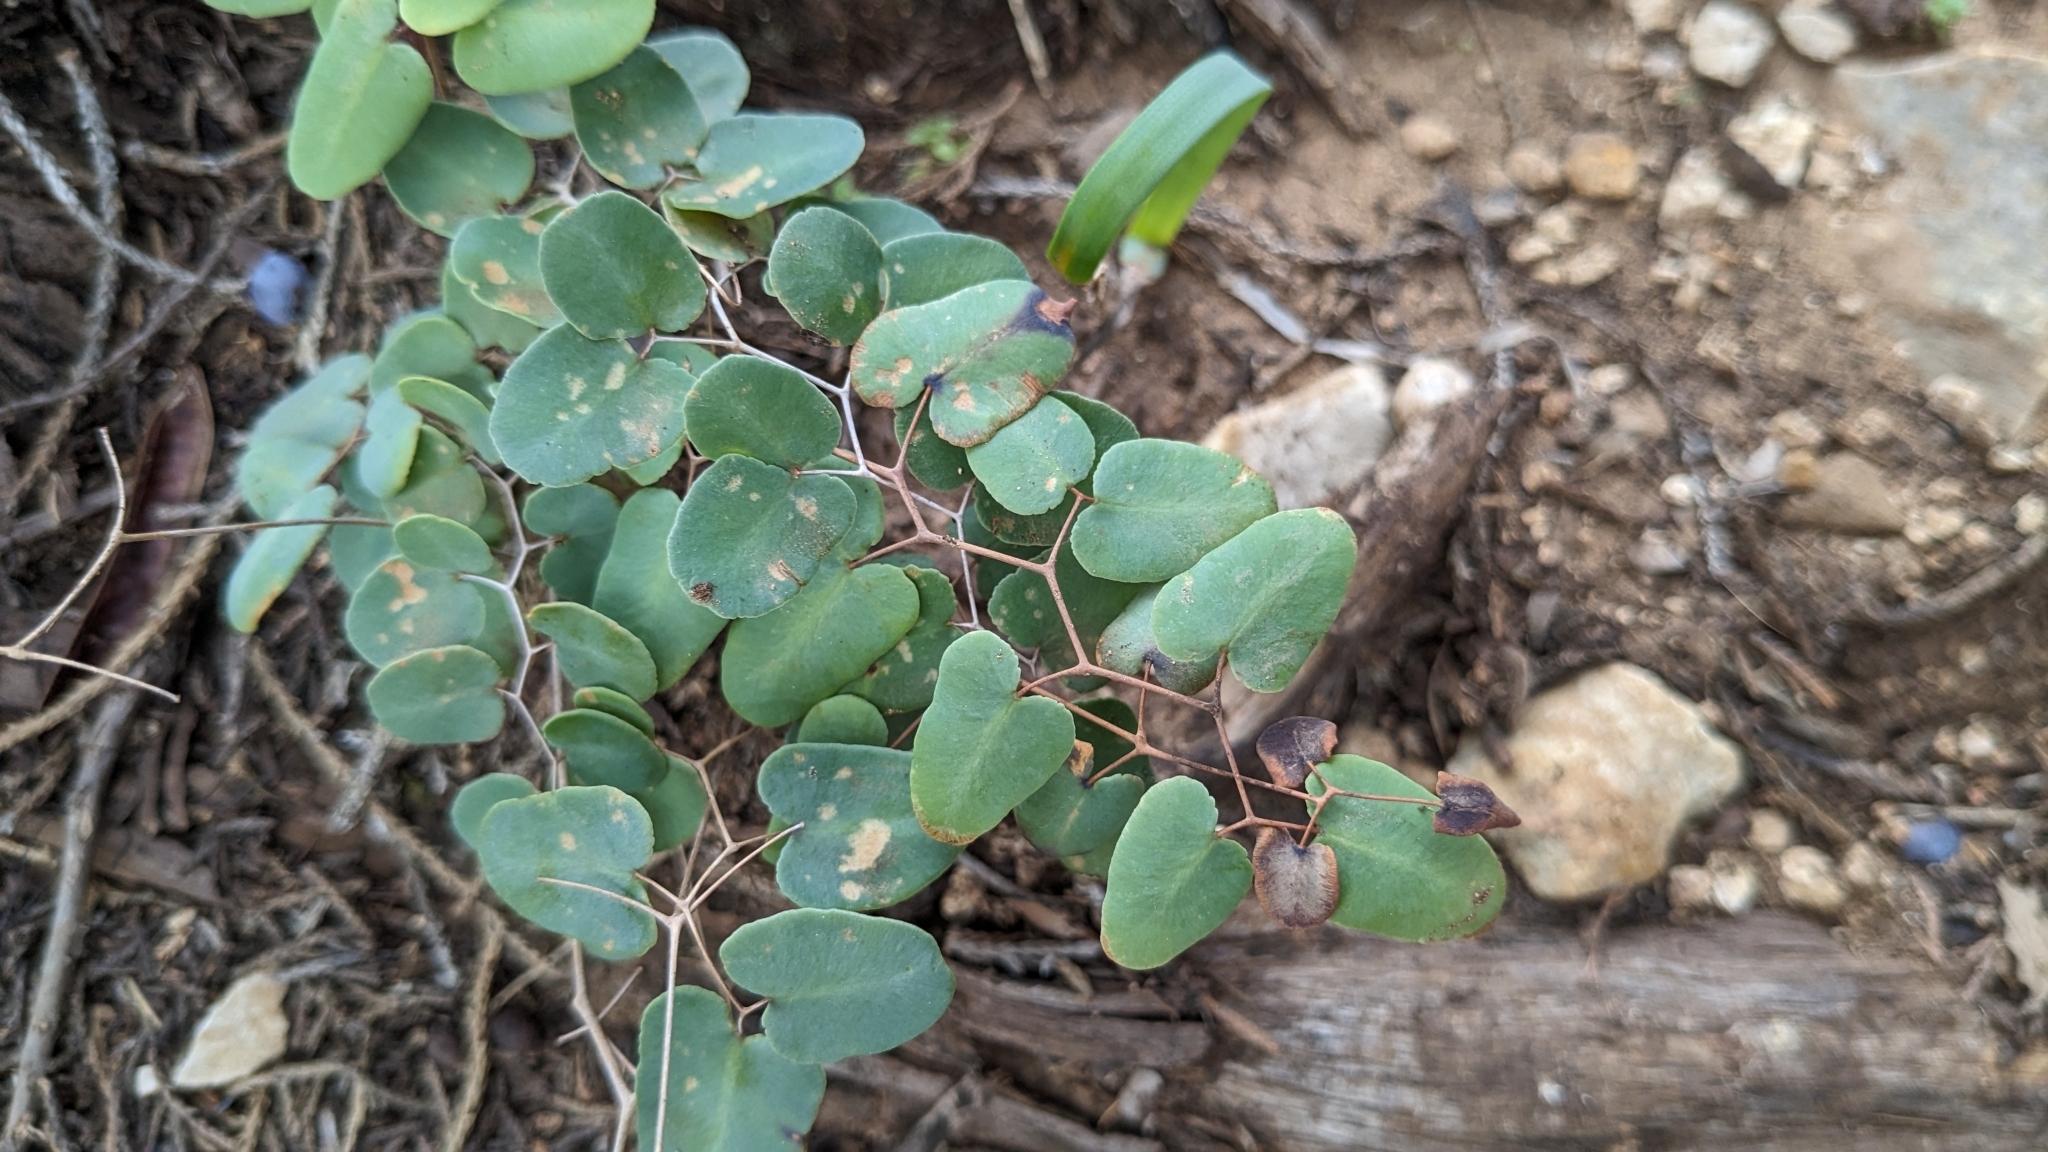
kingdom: Plantae
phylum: Tracheophyta
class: Polypodiopsida
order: Polypodiales
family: Pteridaceae
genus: Pellaea
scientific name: Pellaea ovata
